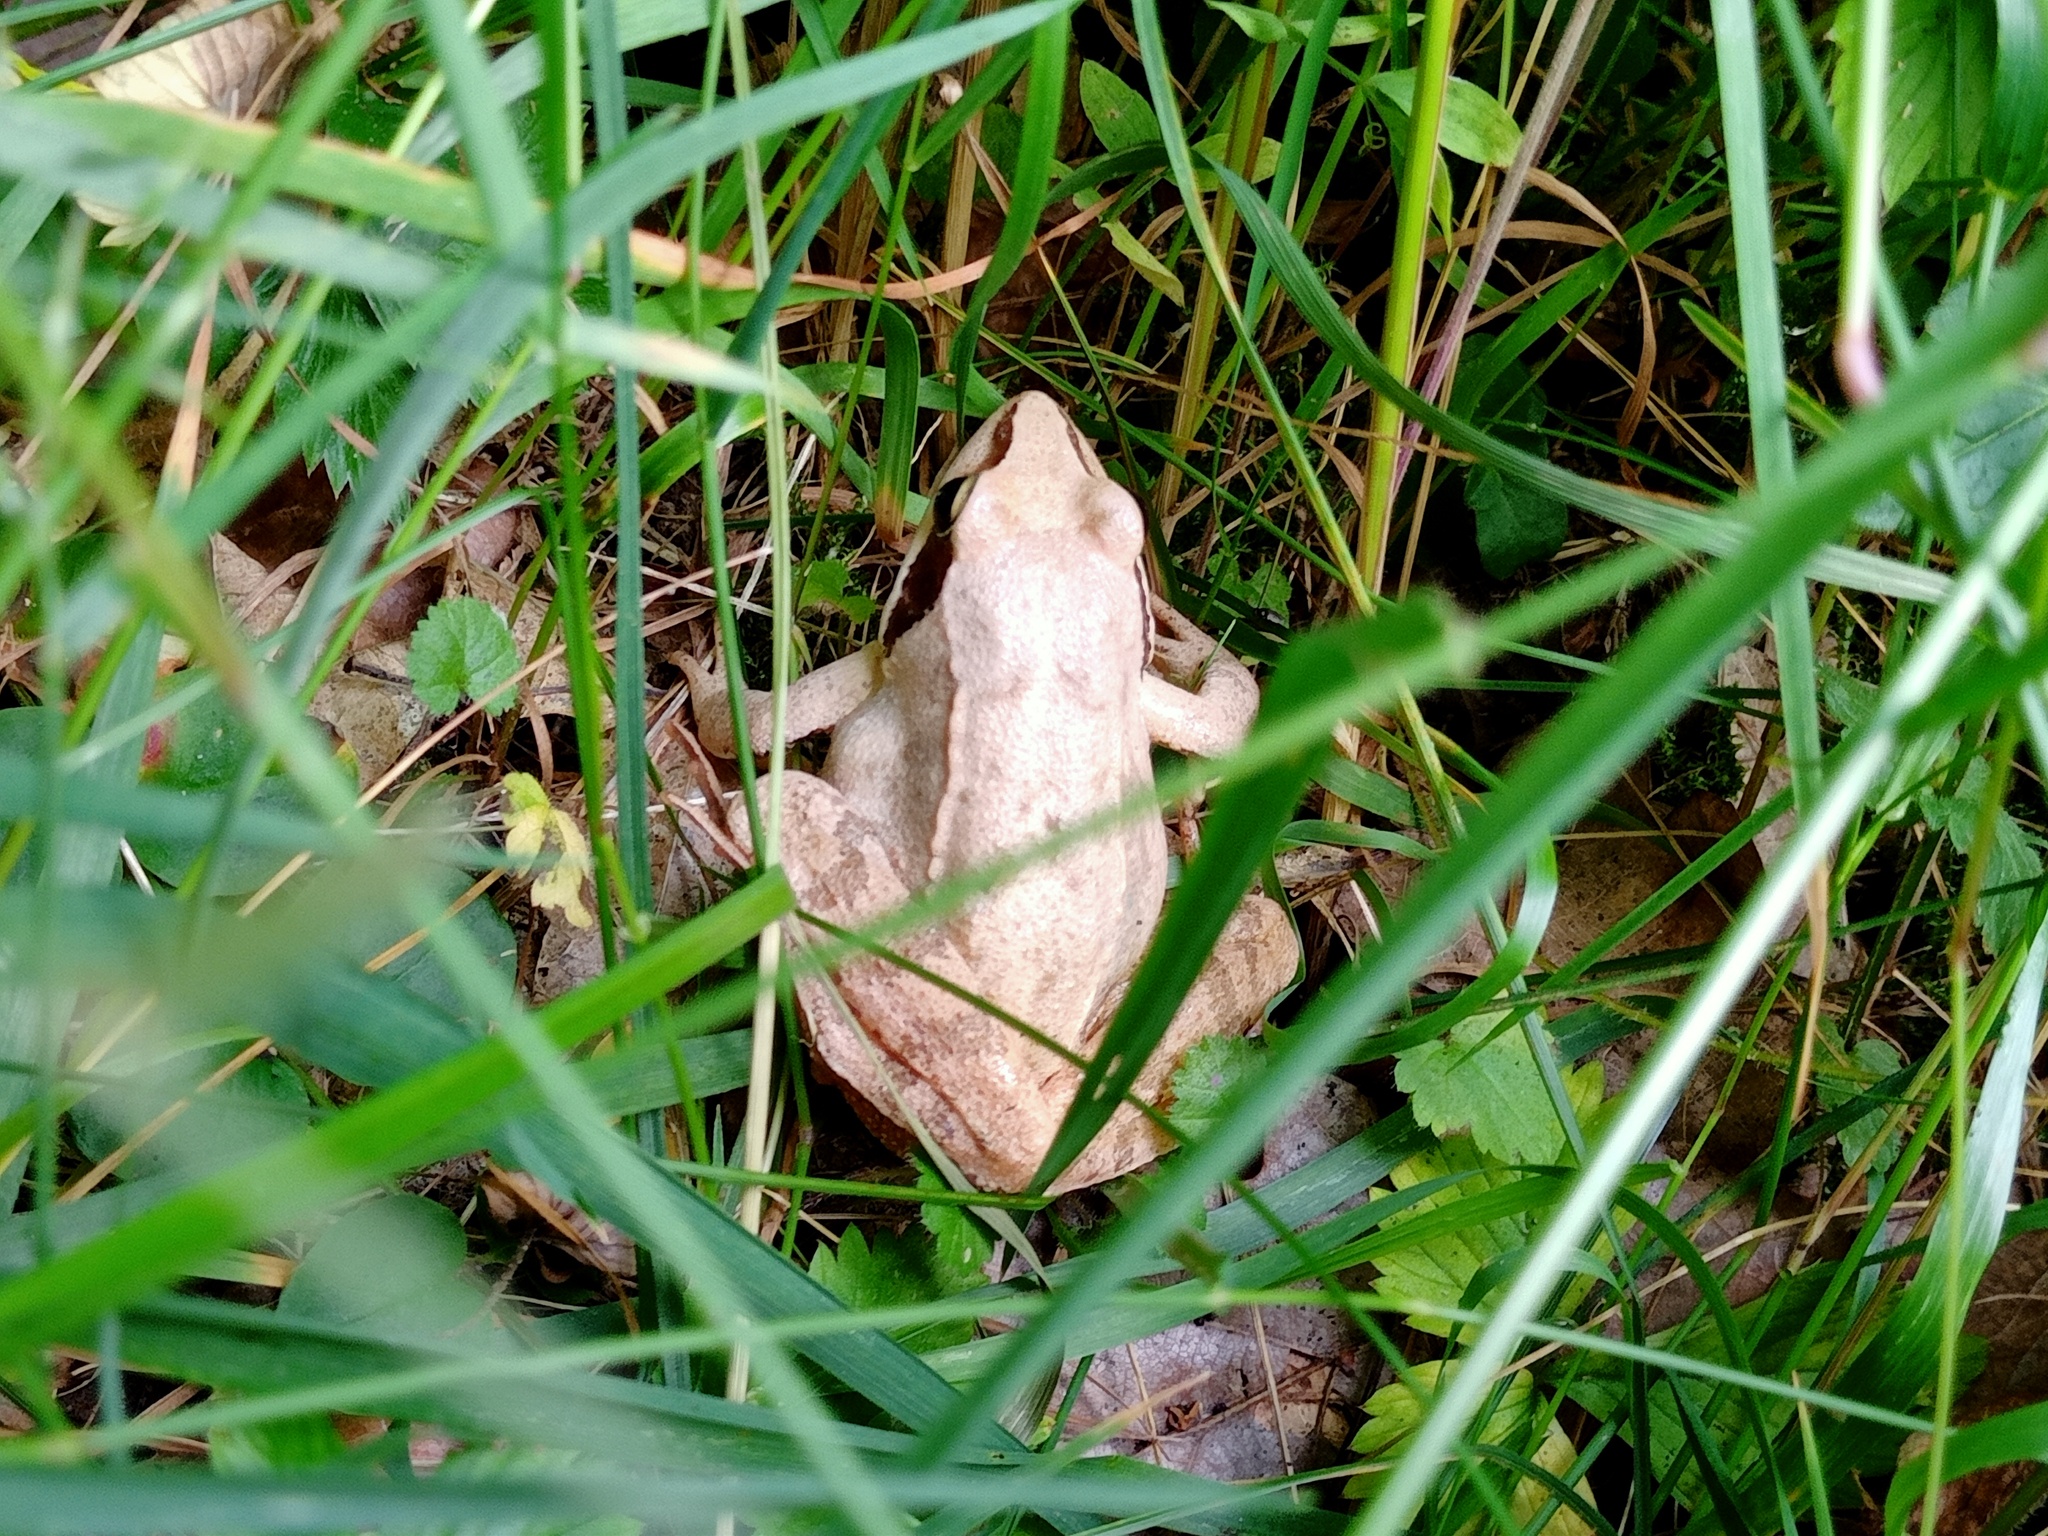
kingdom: Animalia
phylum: Chordata
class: Amphibia
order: Anura
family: Ranidae
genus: Rana
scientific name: Rana dalmatina
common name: Agile frog
